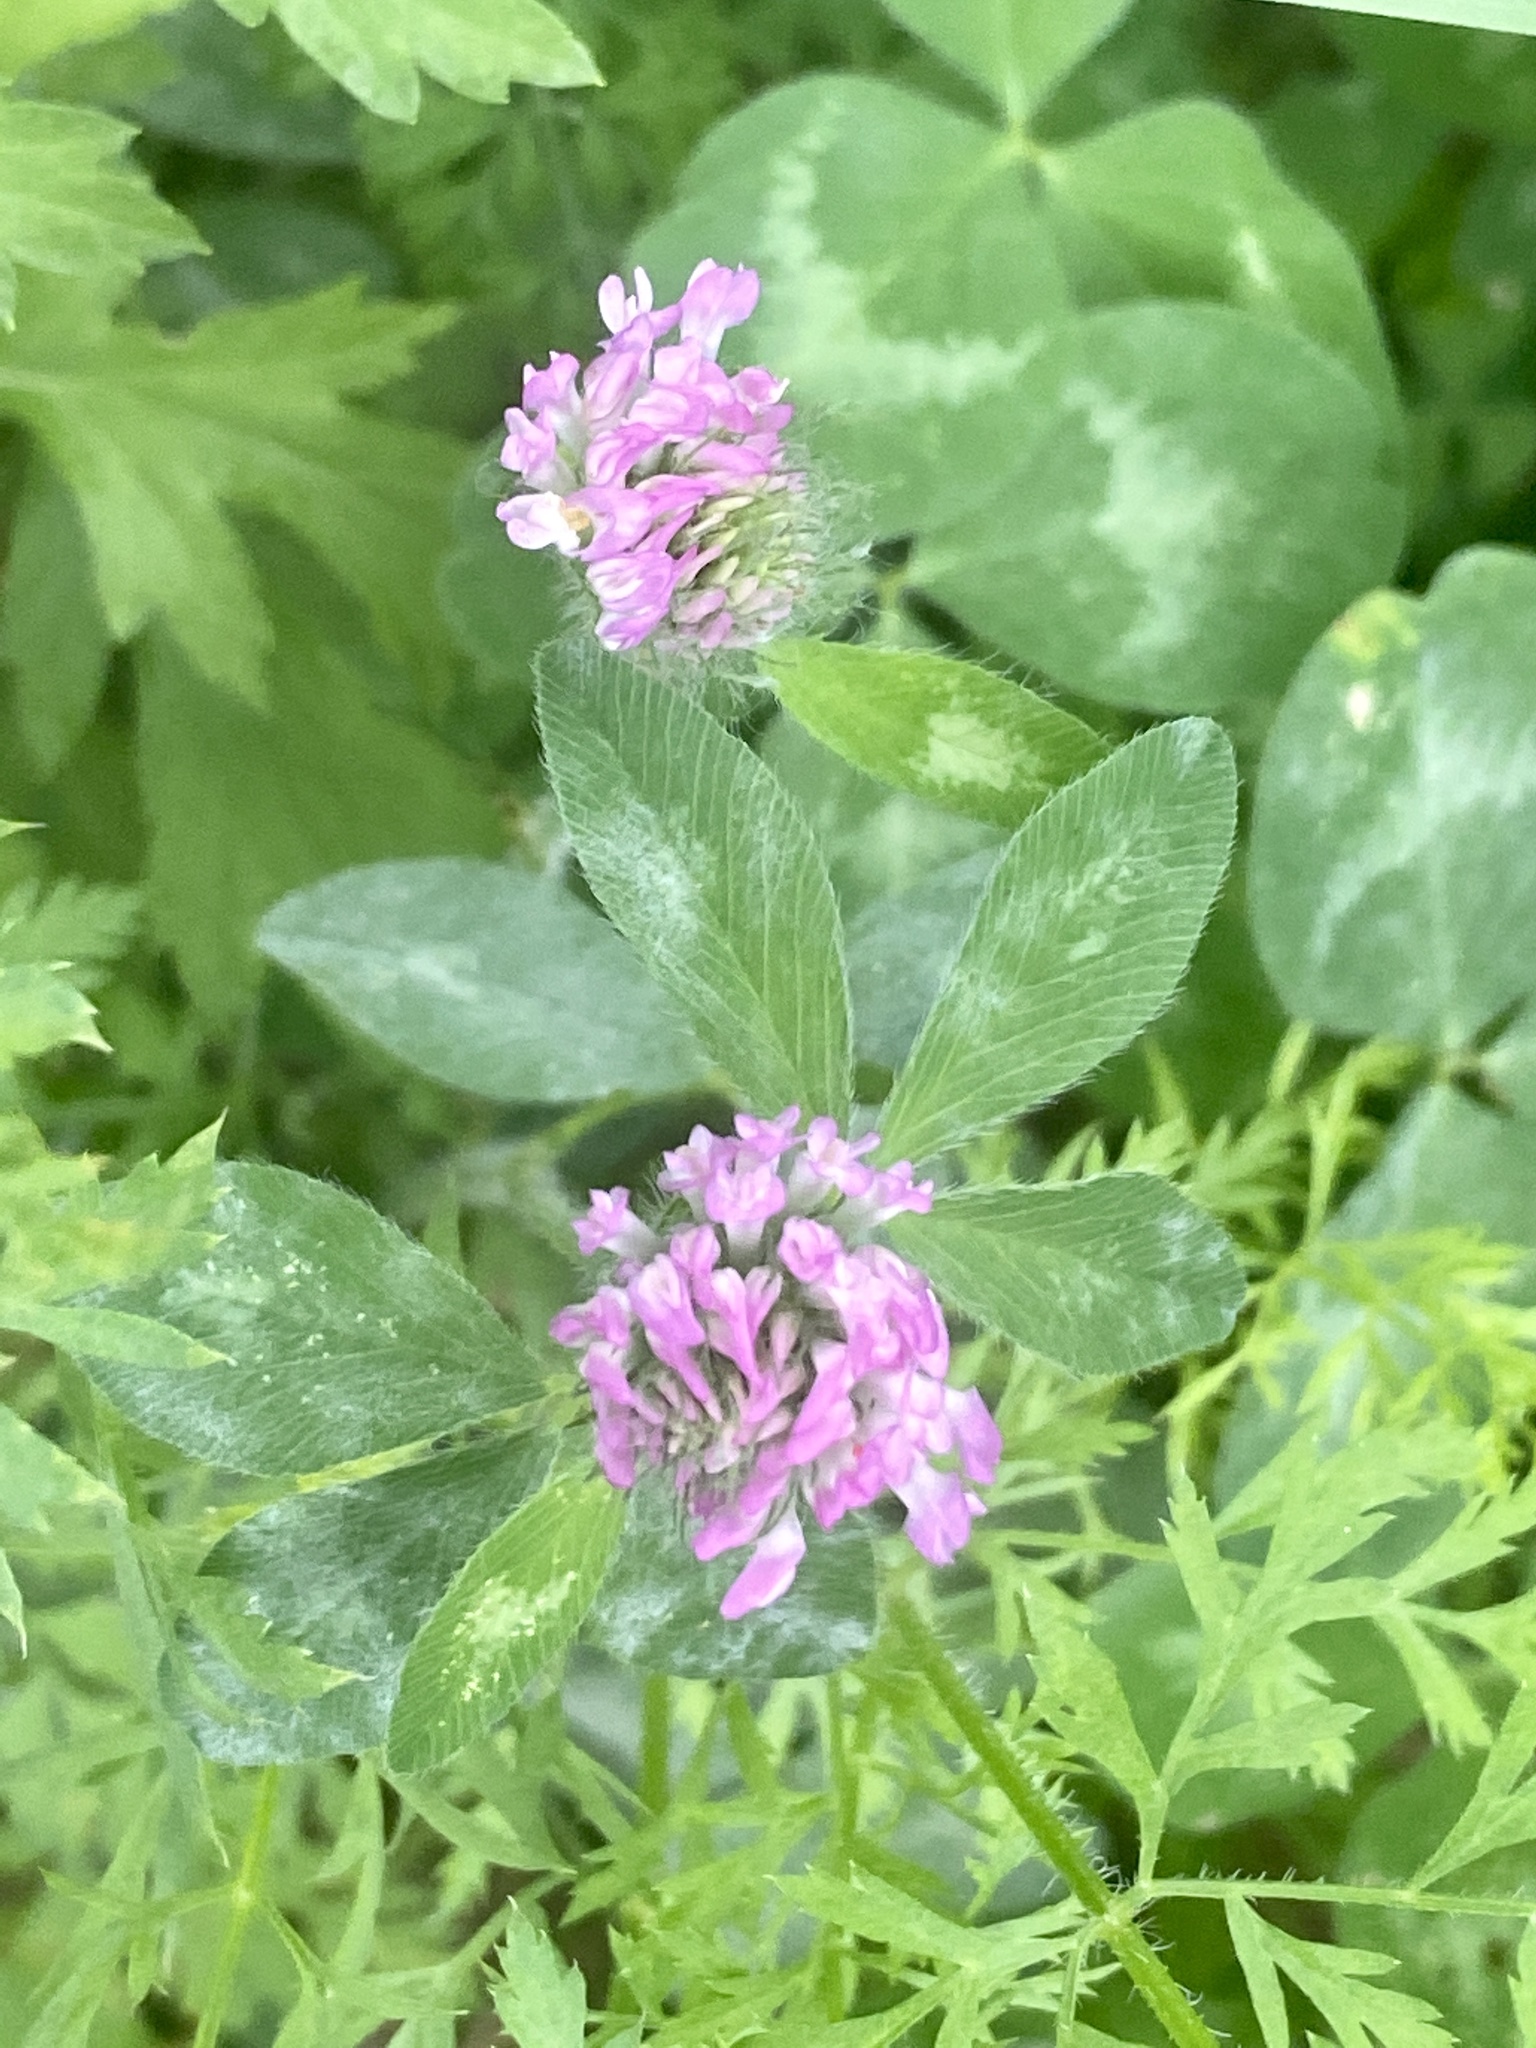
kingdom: Plantae
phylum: Tracheophyta
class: Magnoliopsida
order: Fabales
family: Fabaceae
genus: Trifolium
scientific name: Trifolium pratense
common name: Red clover
